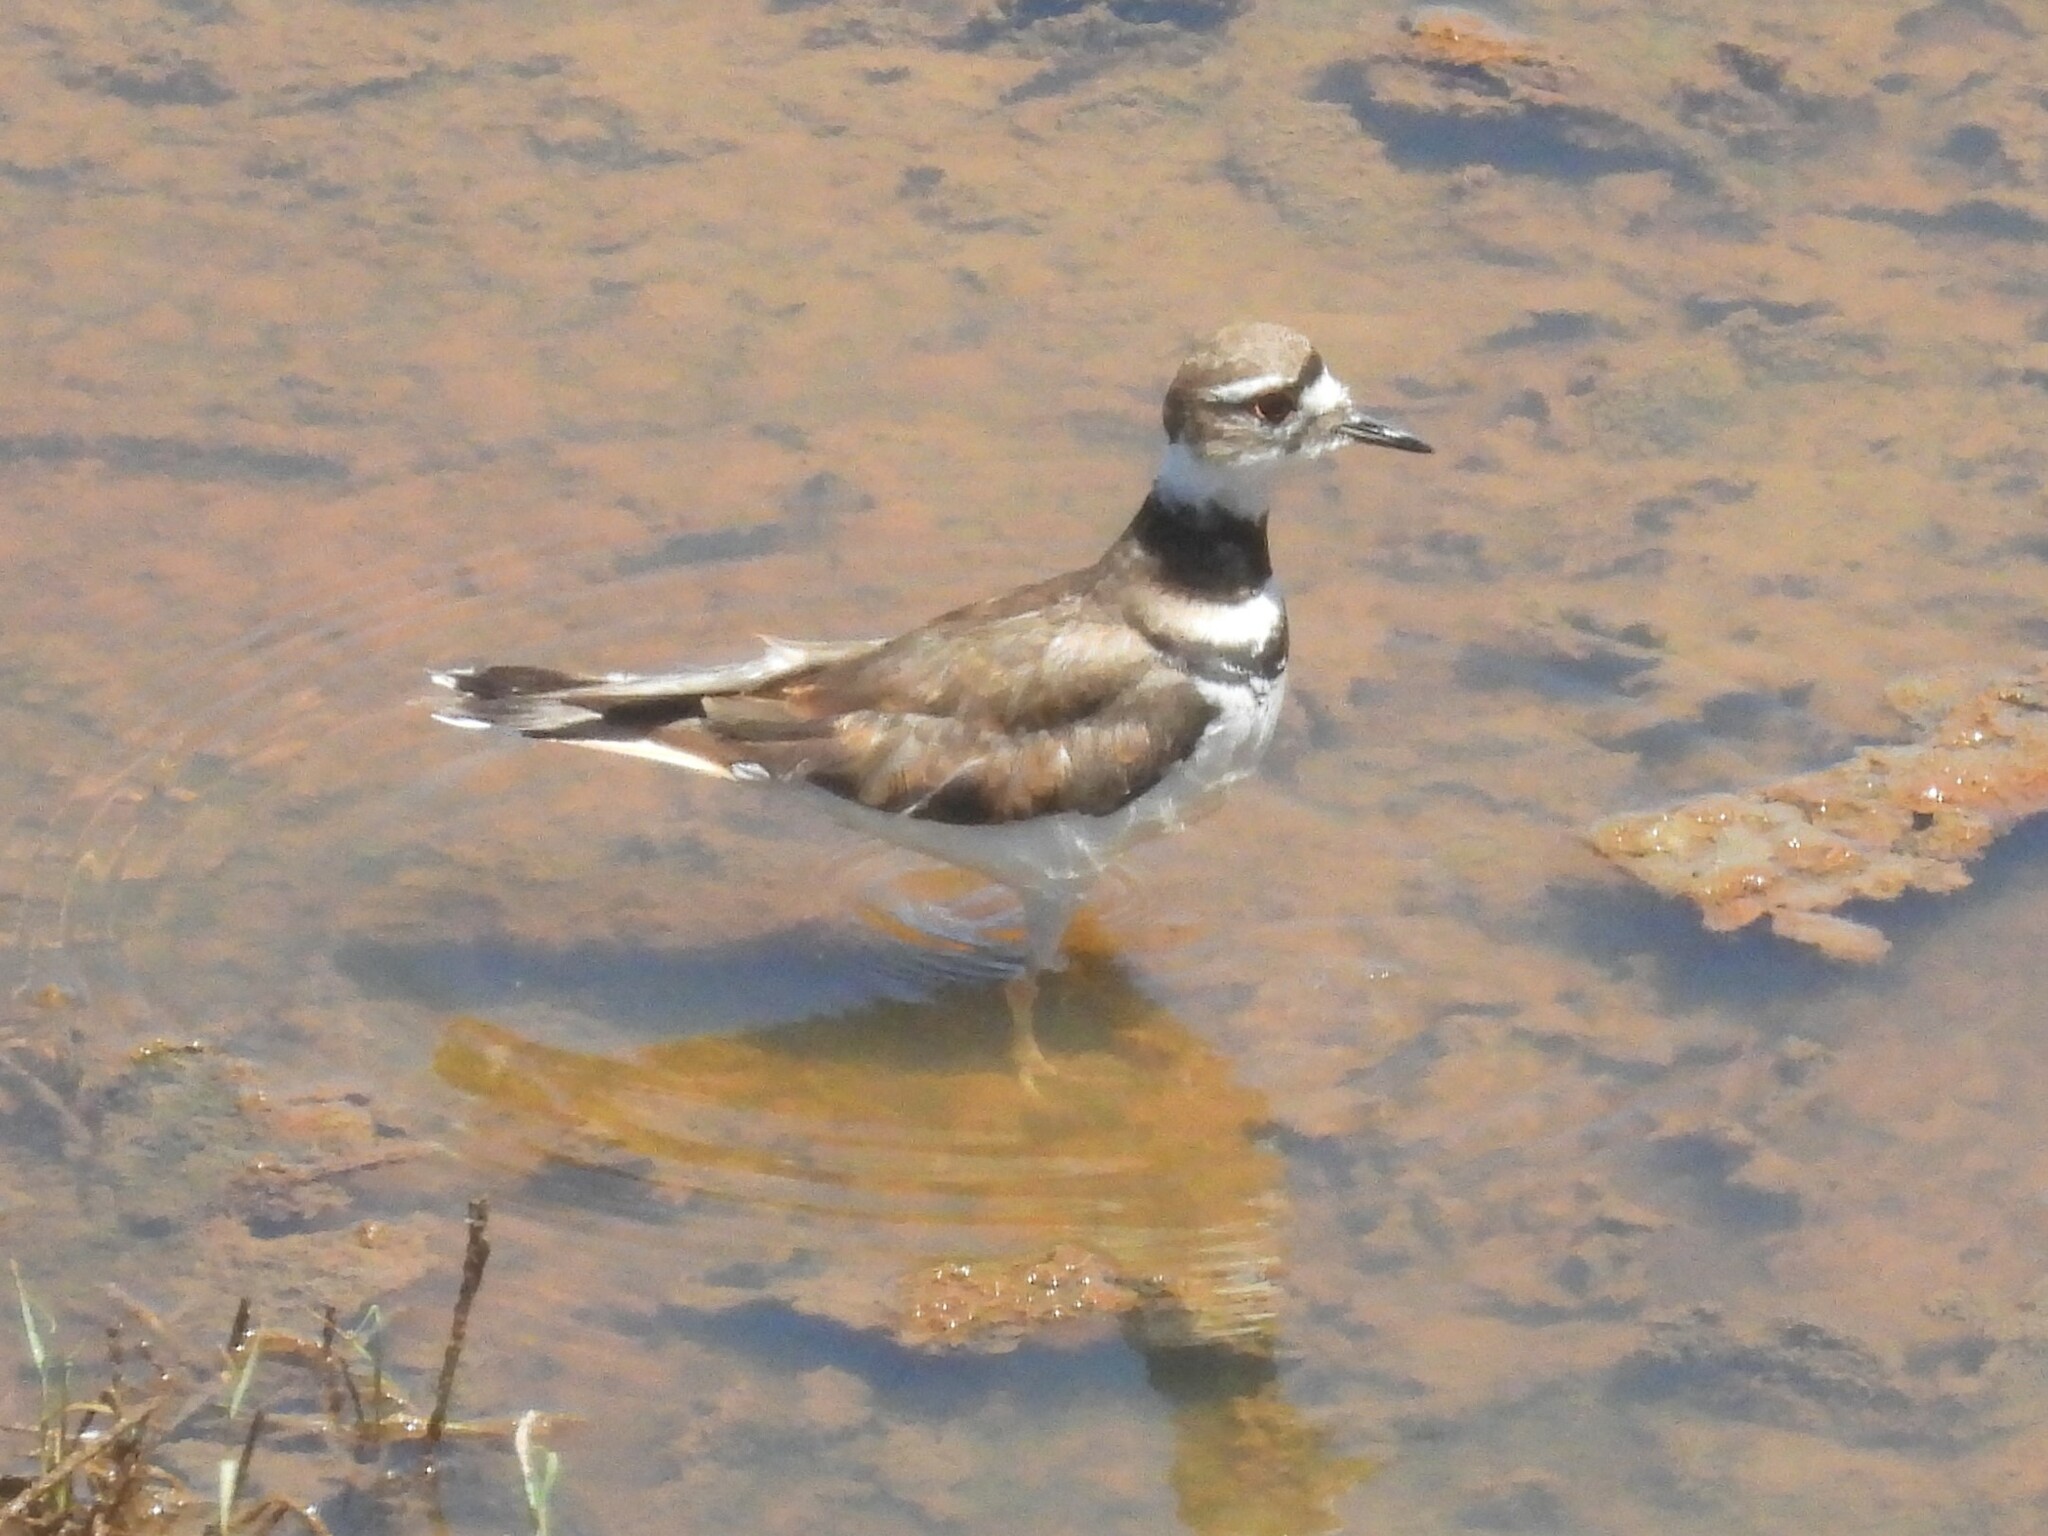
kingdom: Animalia
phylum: Chordata
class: Aves
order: Charadriiformes
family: Charadriidae
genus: Charadrius
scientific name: Charadrius vociferus
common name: Killdeer
